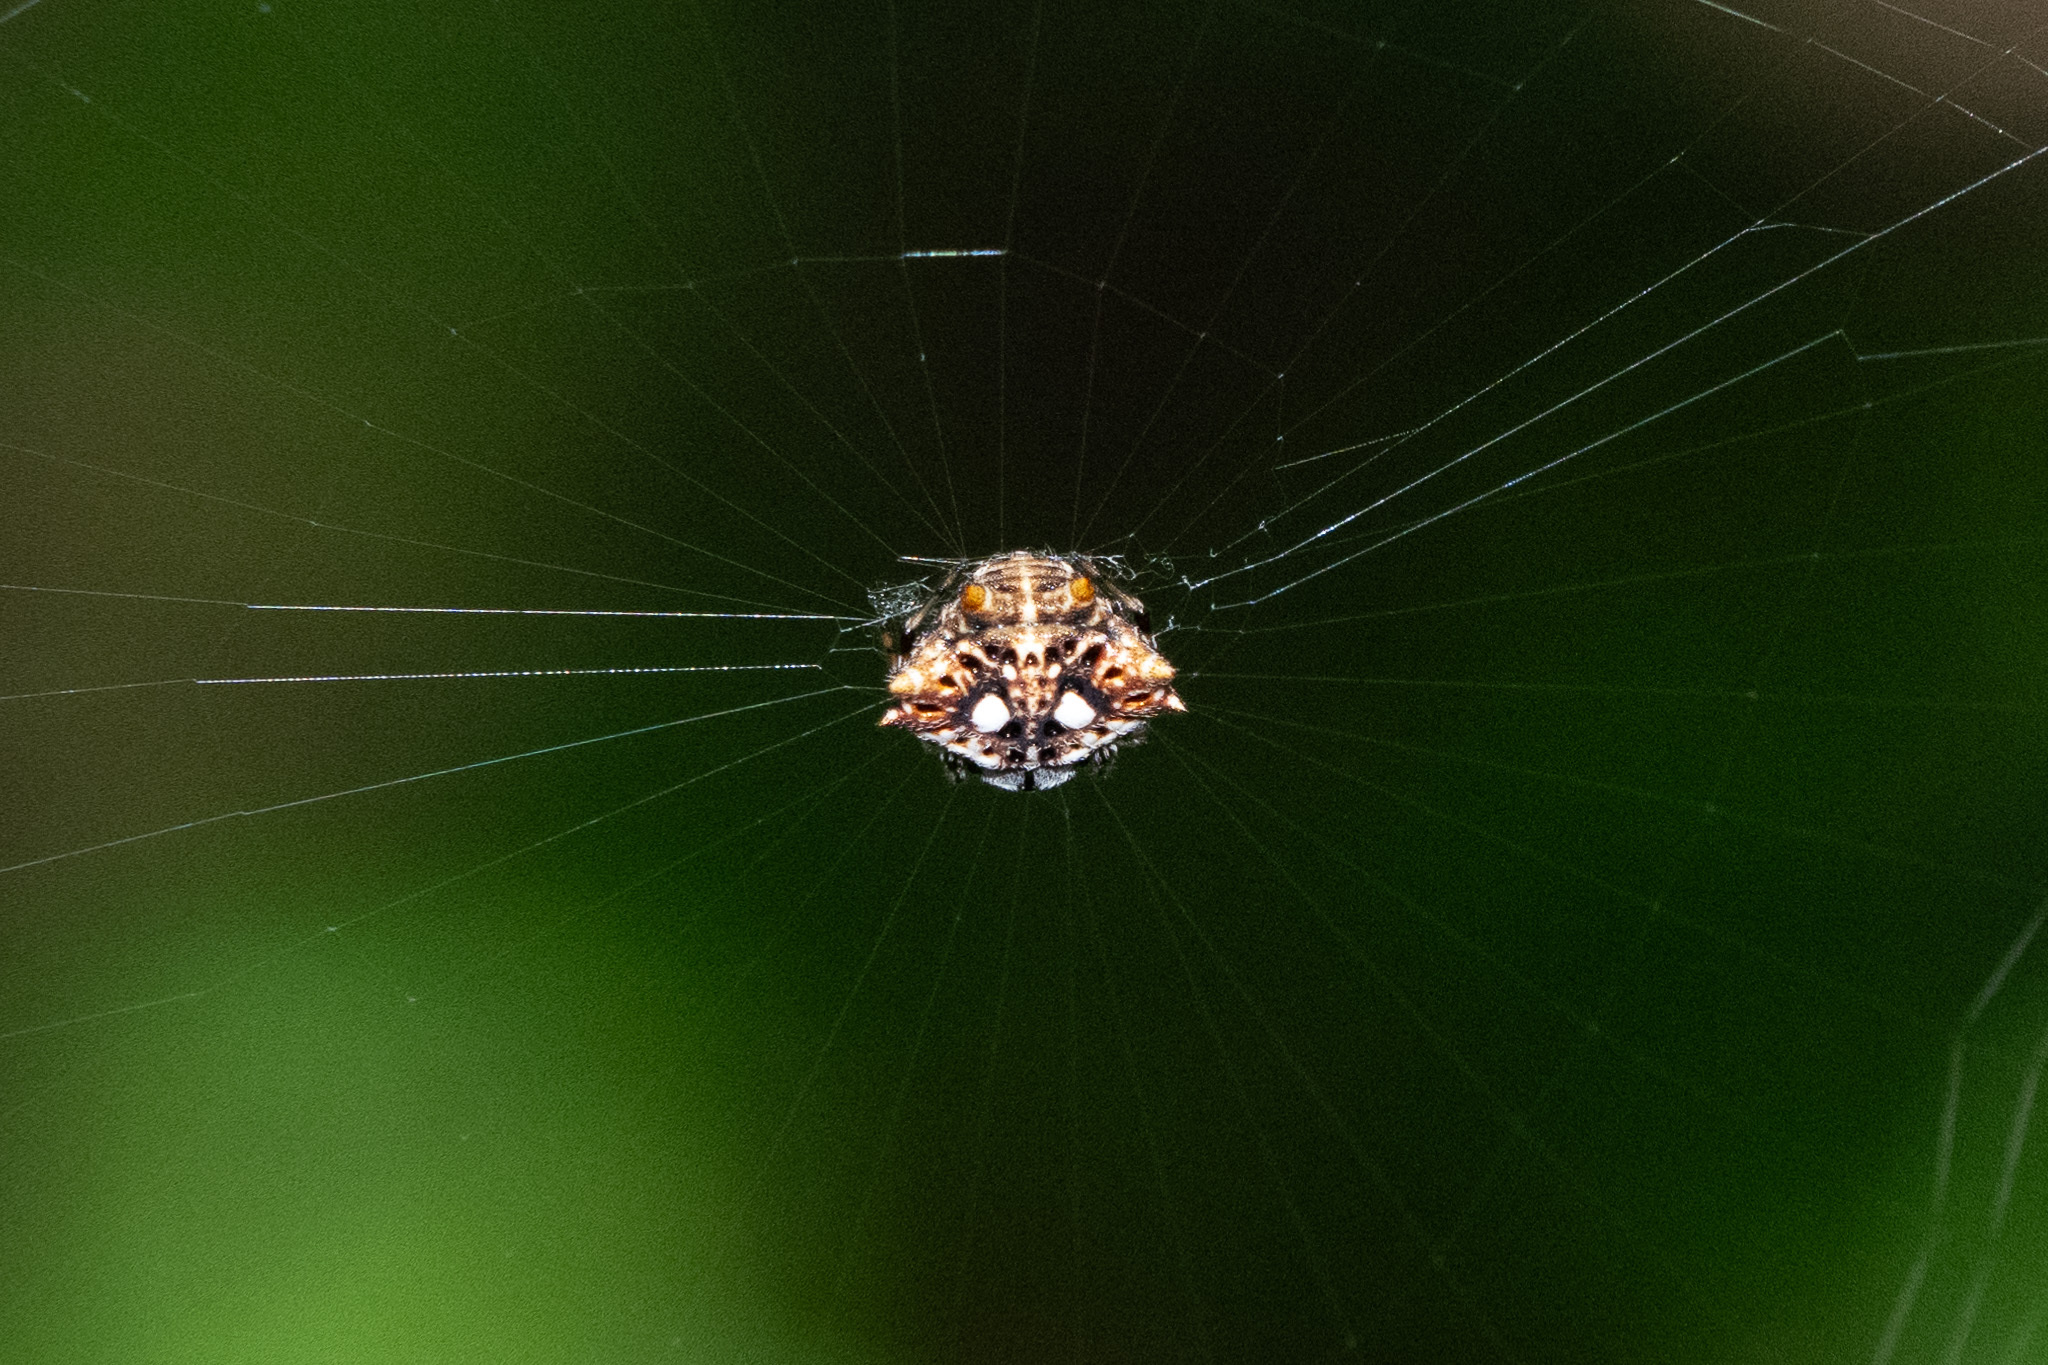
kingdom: Animalia
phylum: Arthropoda
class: Arachnida
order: Araneae
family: Araneidae
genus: Thelacantha
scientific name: Thelacantha brevispina
